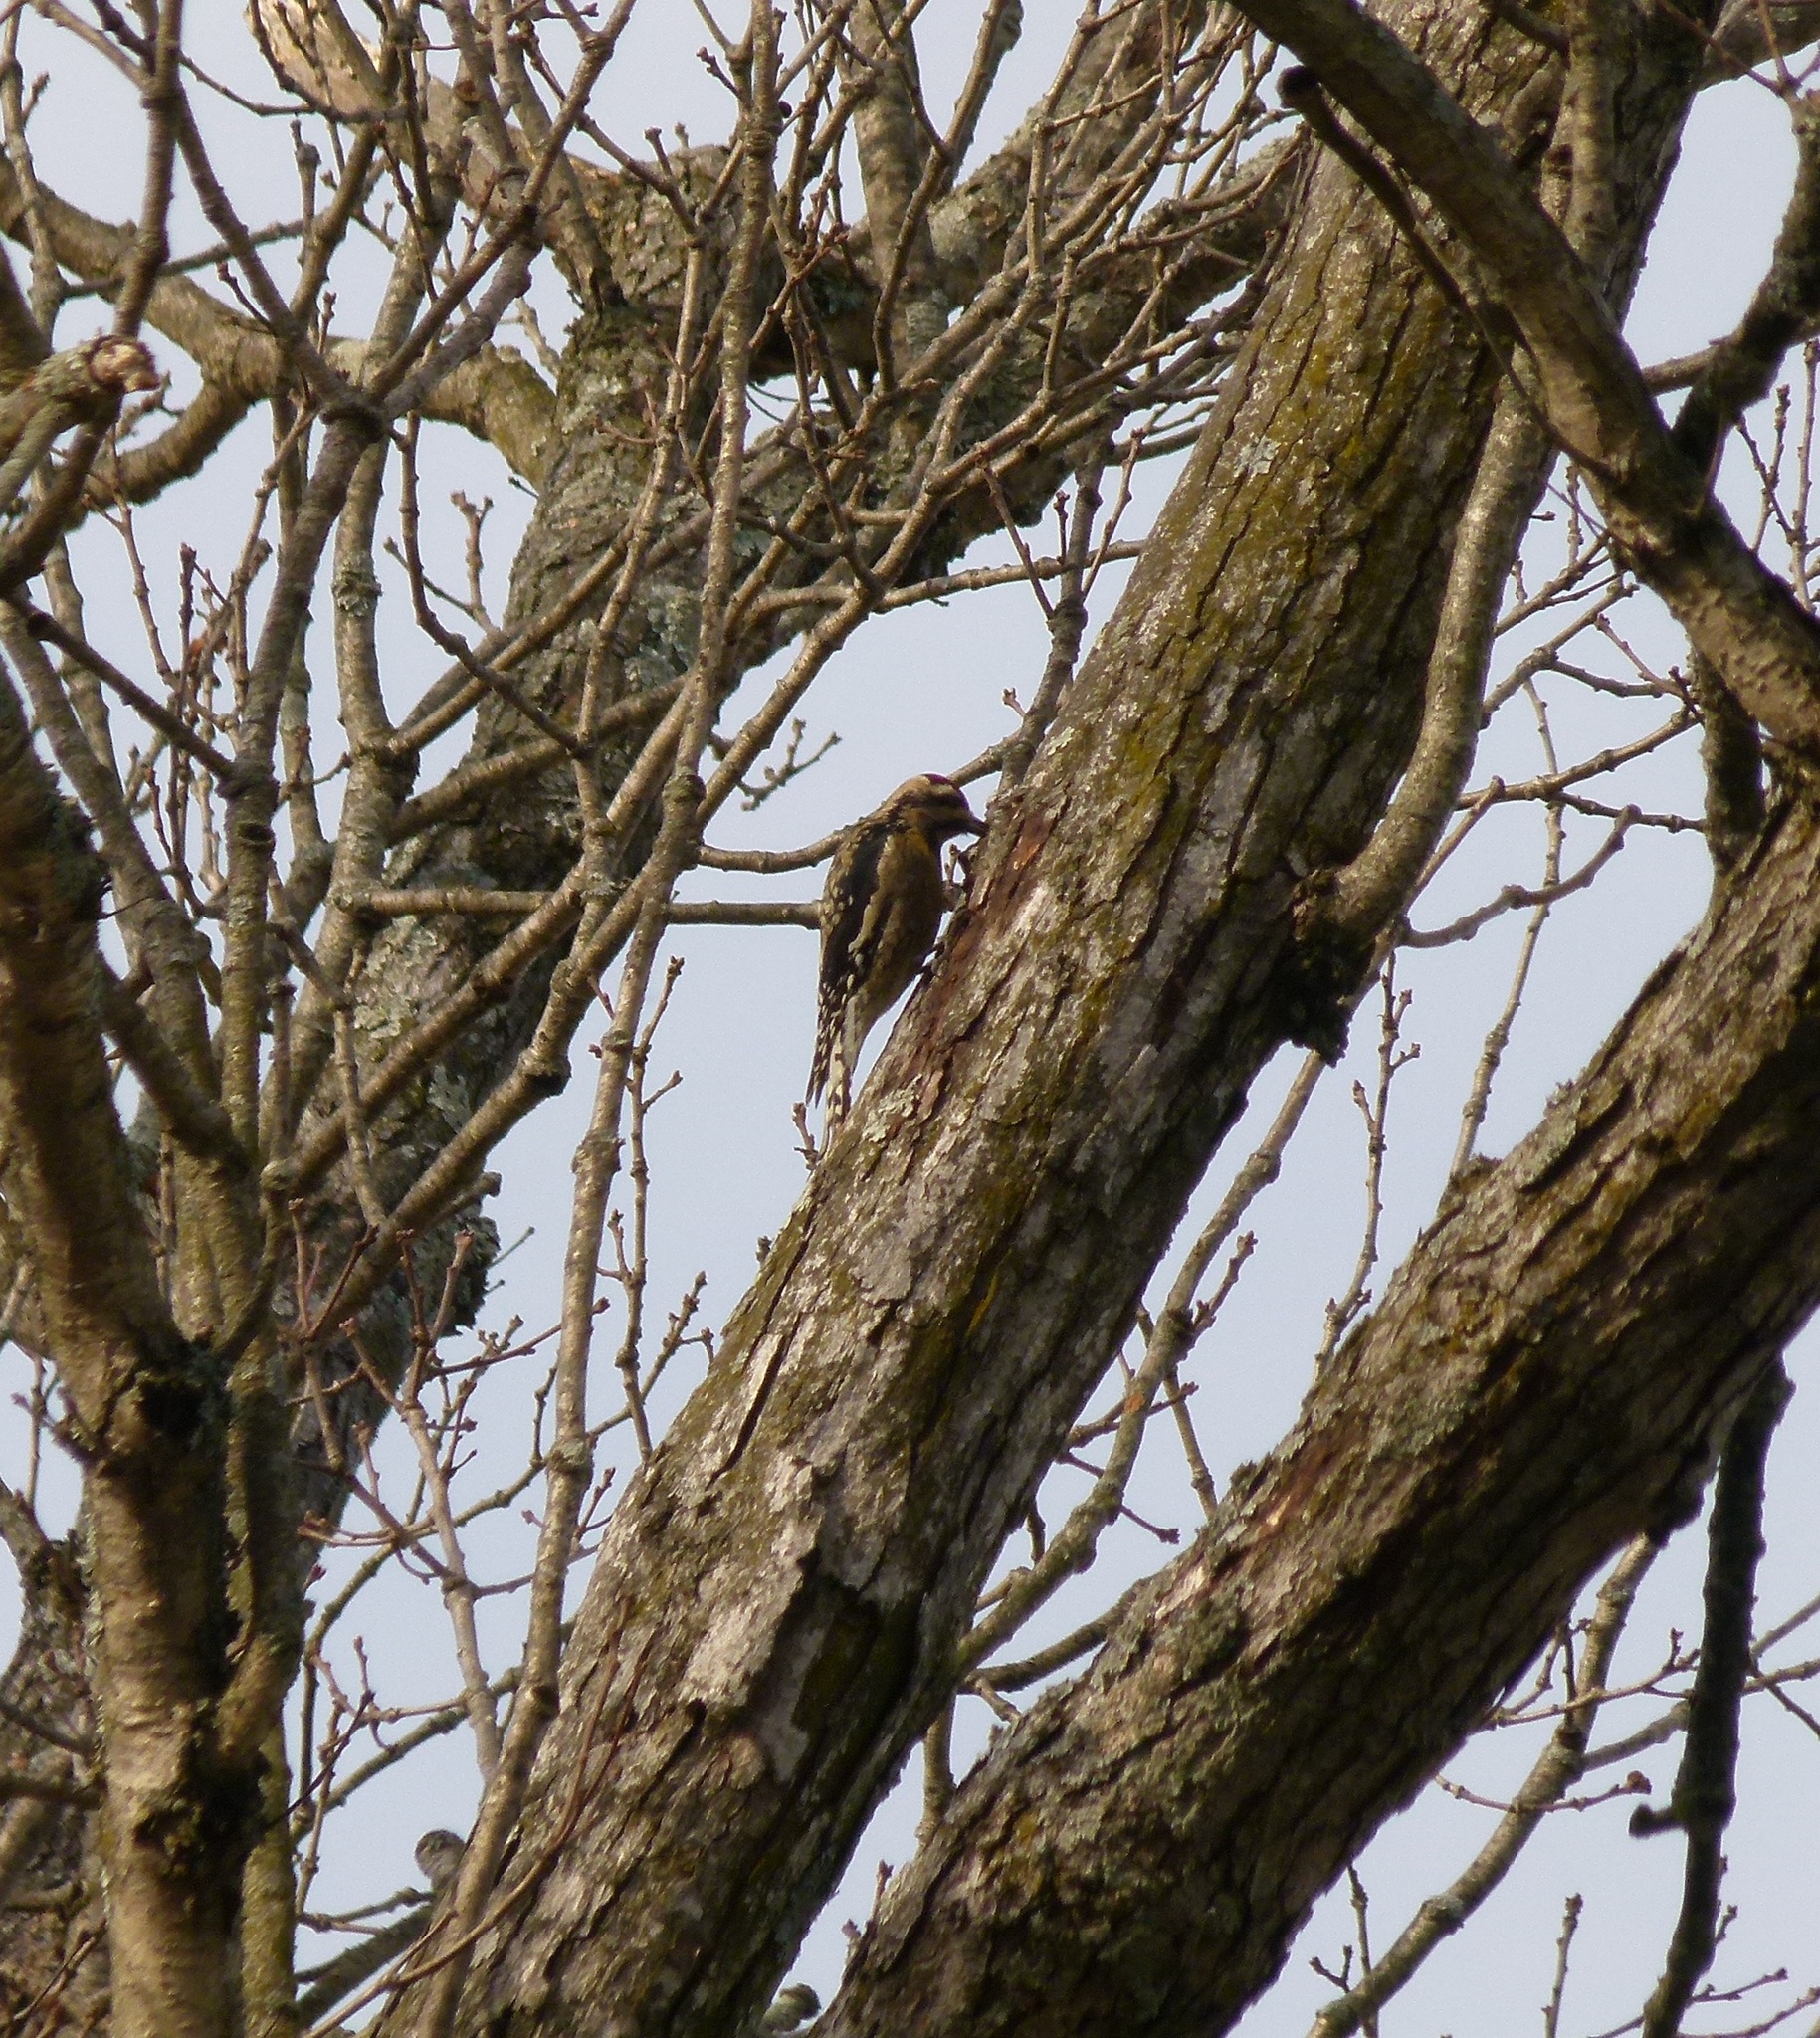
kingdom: Animalia
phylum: Chordata
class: Aves
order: Piciformes
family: Picidae
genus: Sphyrapicus
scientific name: Sphyrapicus varius
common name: Yellow-bellied sapsucker
